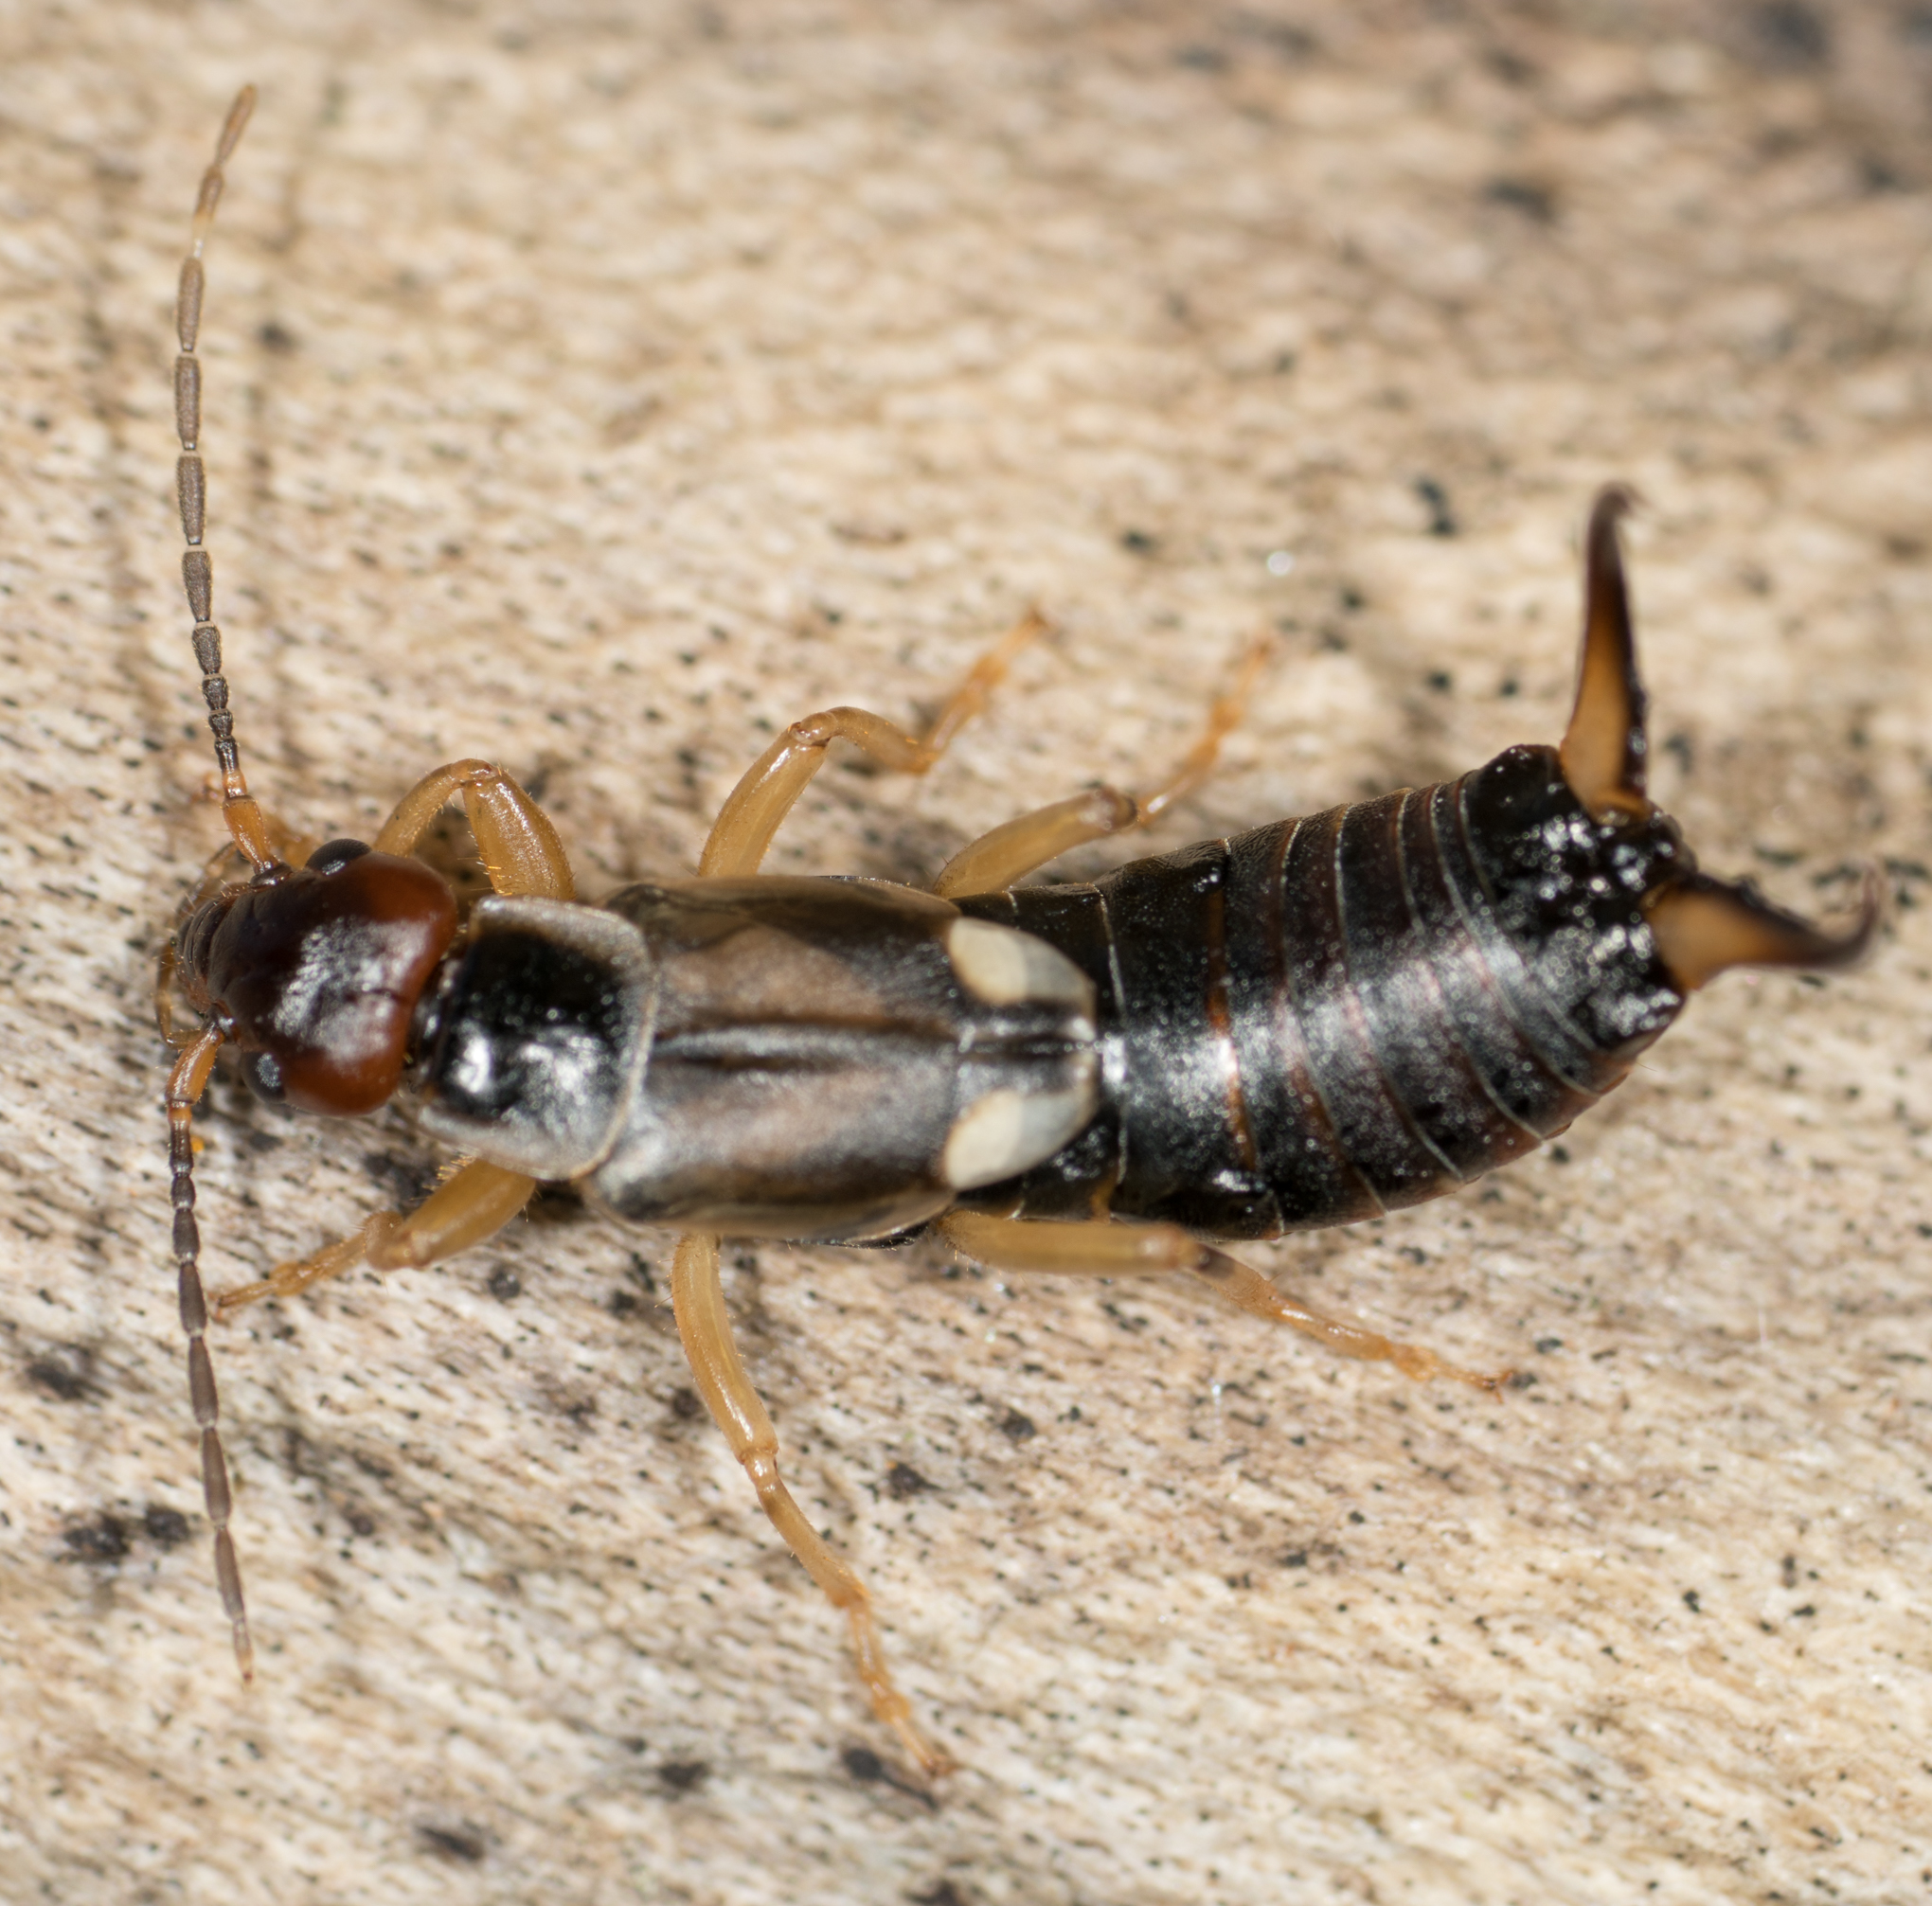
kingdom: Animalia
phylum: Arthropoda
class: Insecta
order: Dermaptera
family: Forficulidae
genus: Forficula
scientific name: Forficula
